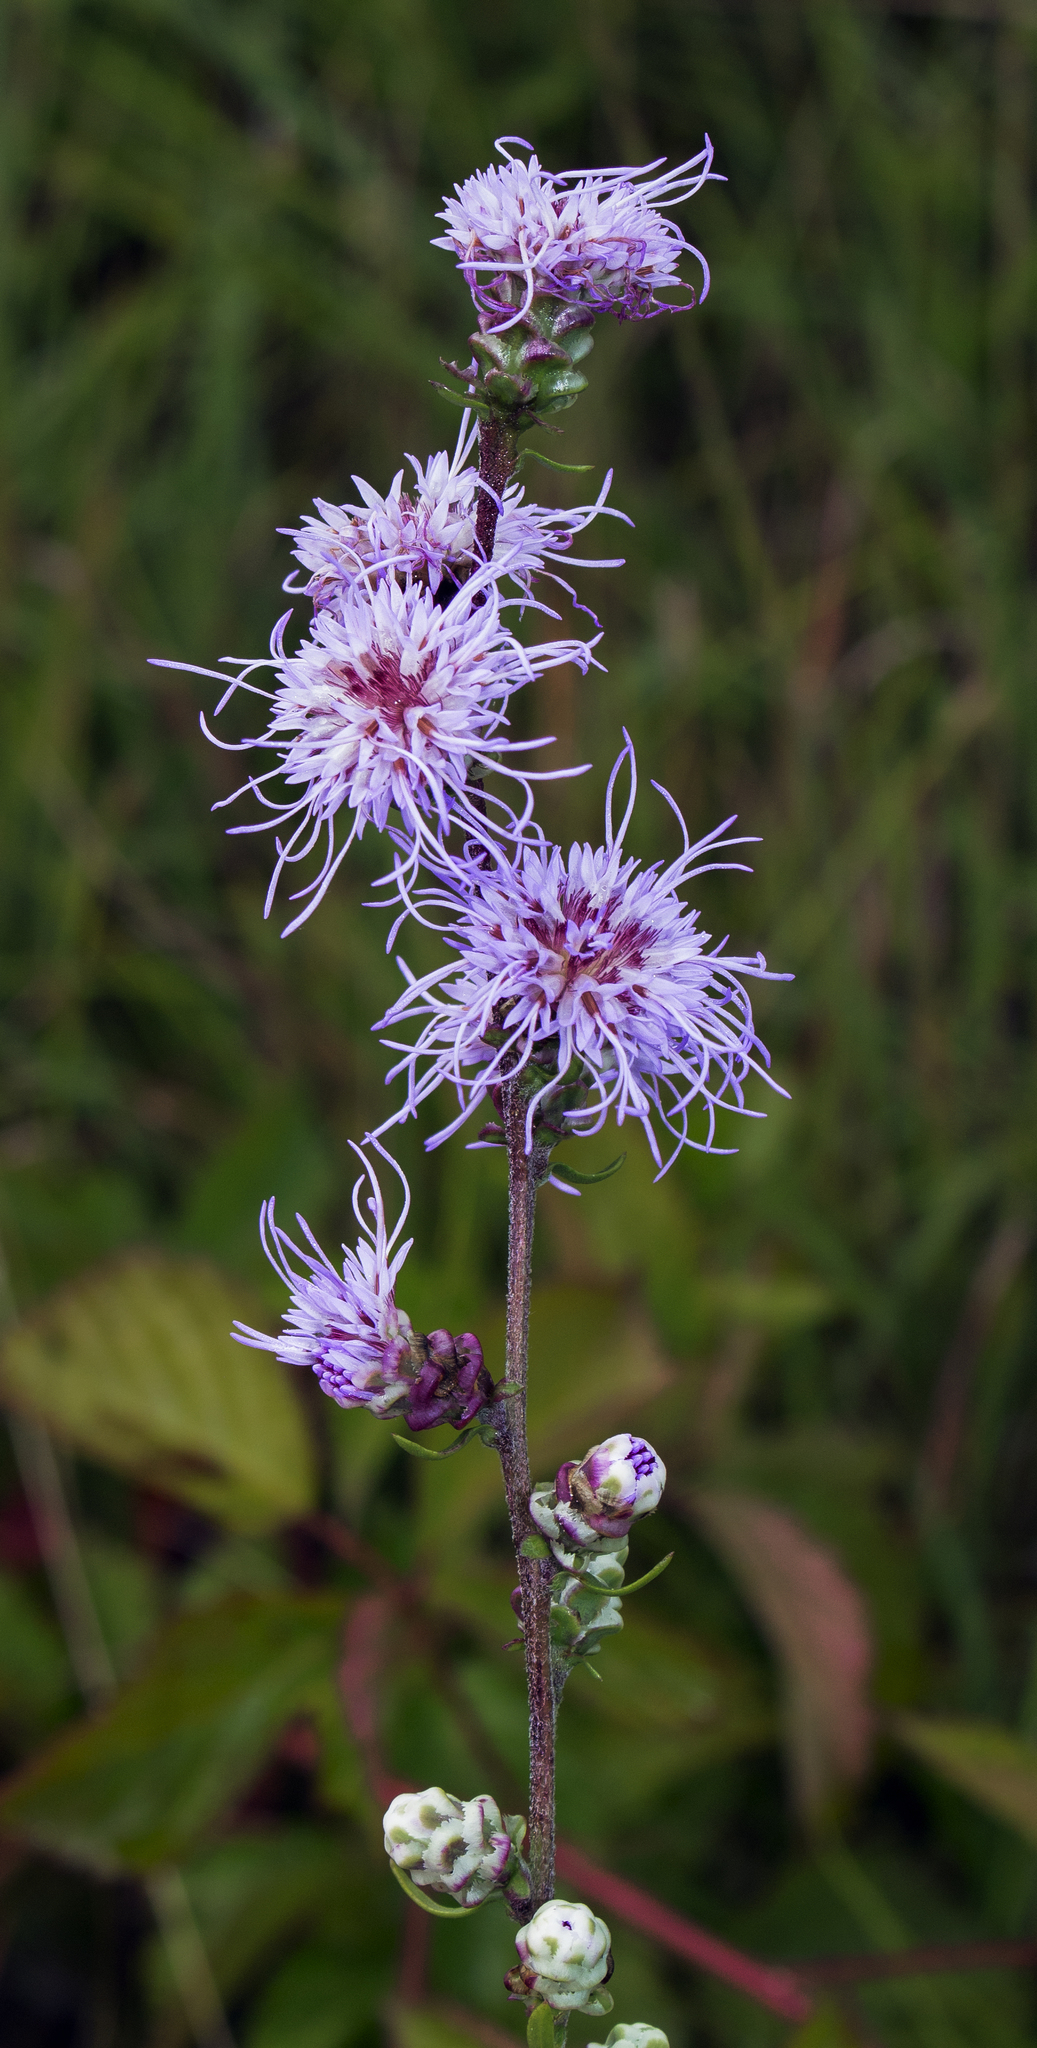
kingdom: Plantae
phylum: Tracheophyta
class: Magnoliopsida
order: Asterales
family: Asteraceae
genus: Liatris
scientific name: Liatris aspera
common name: Lacerate blazing-star
